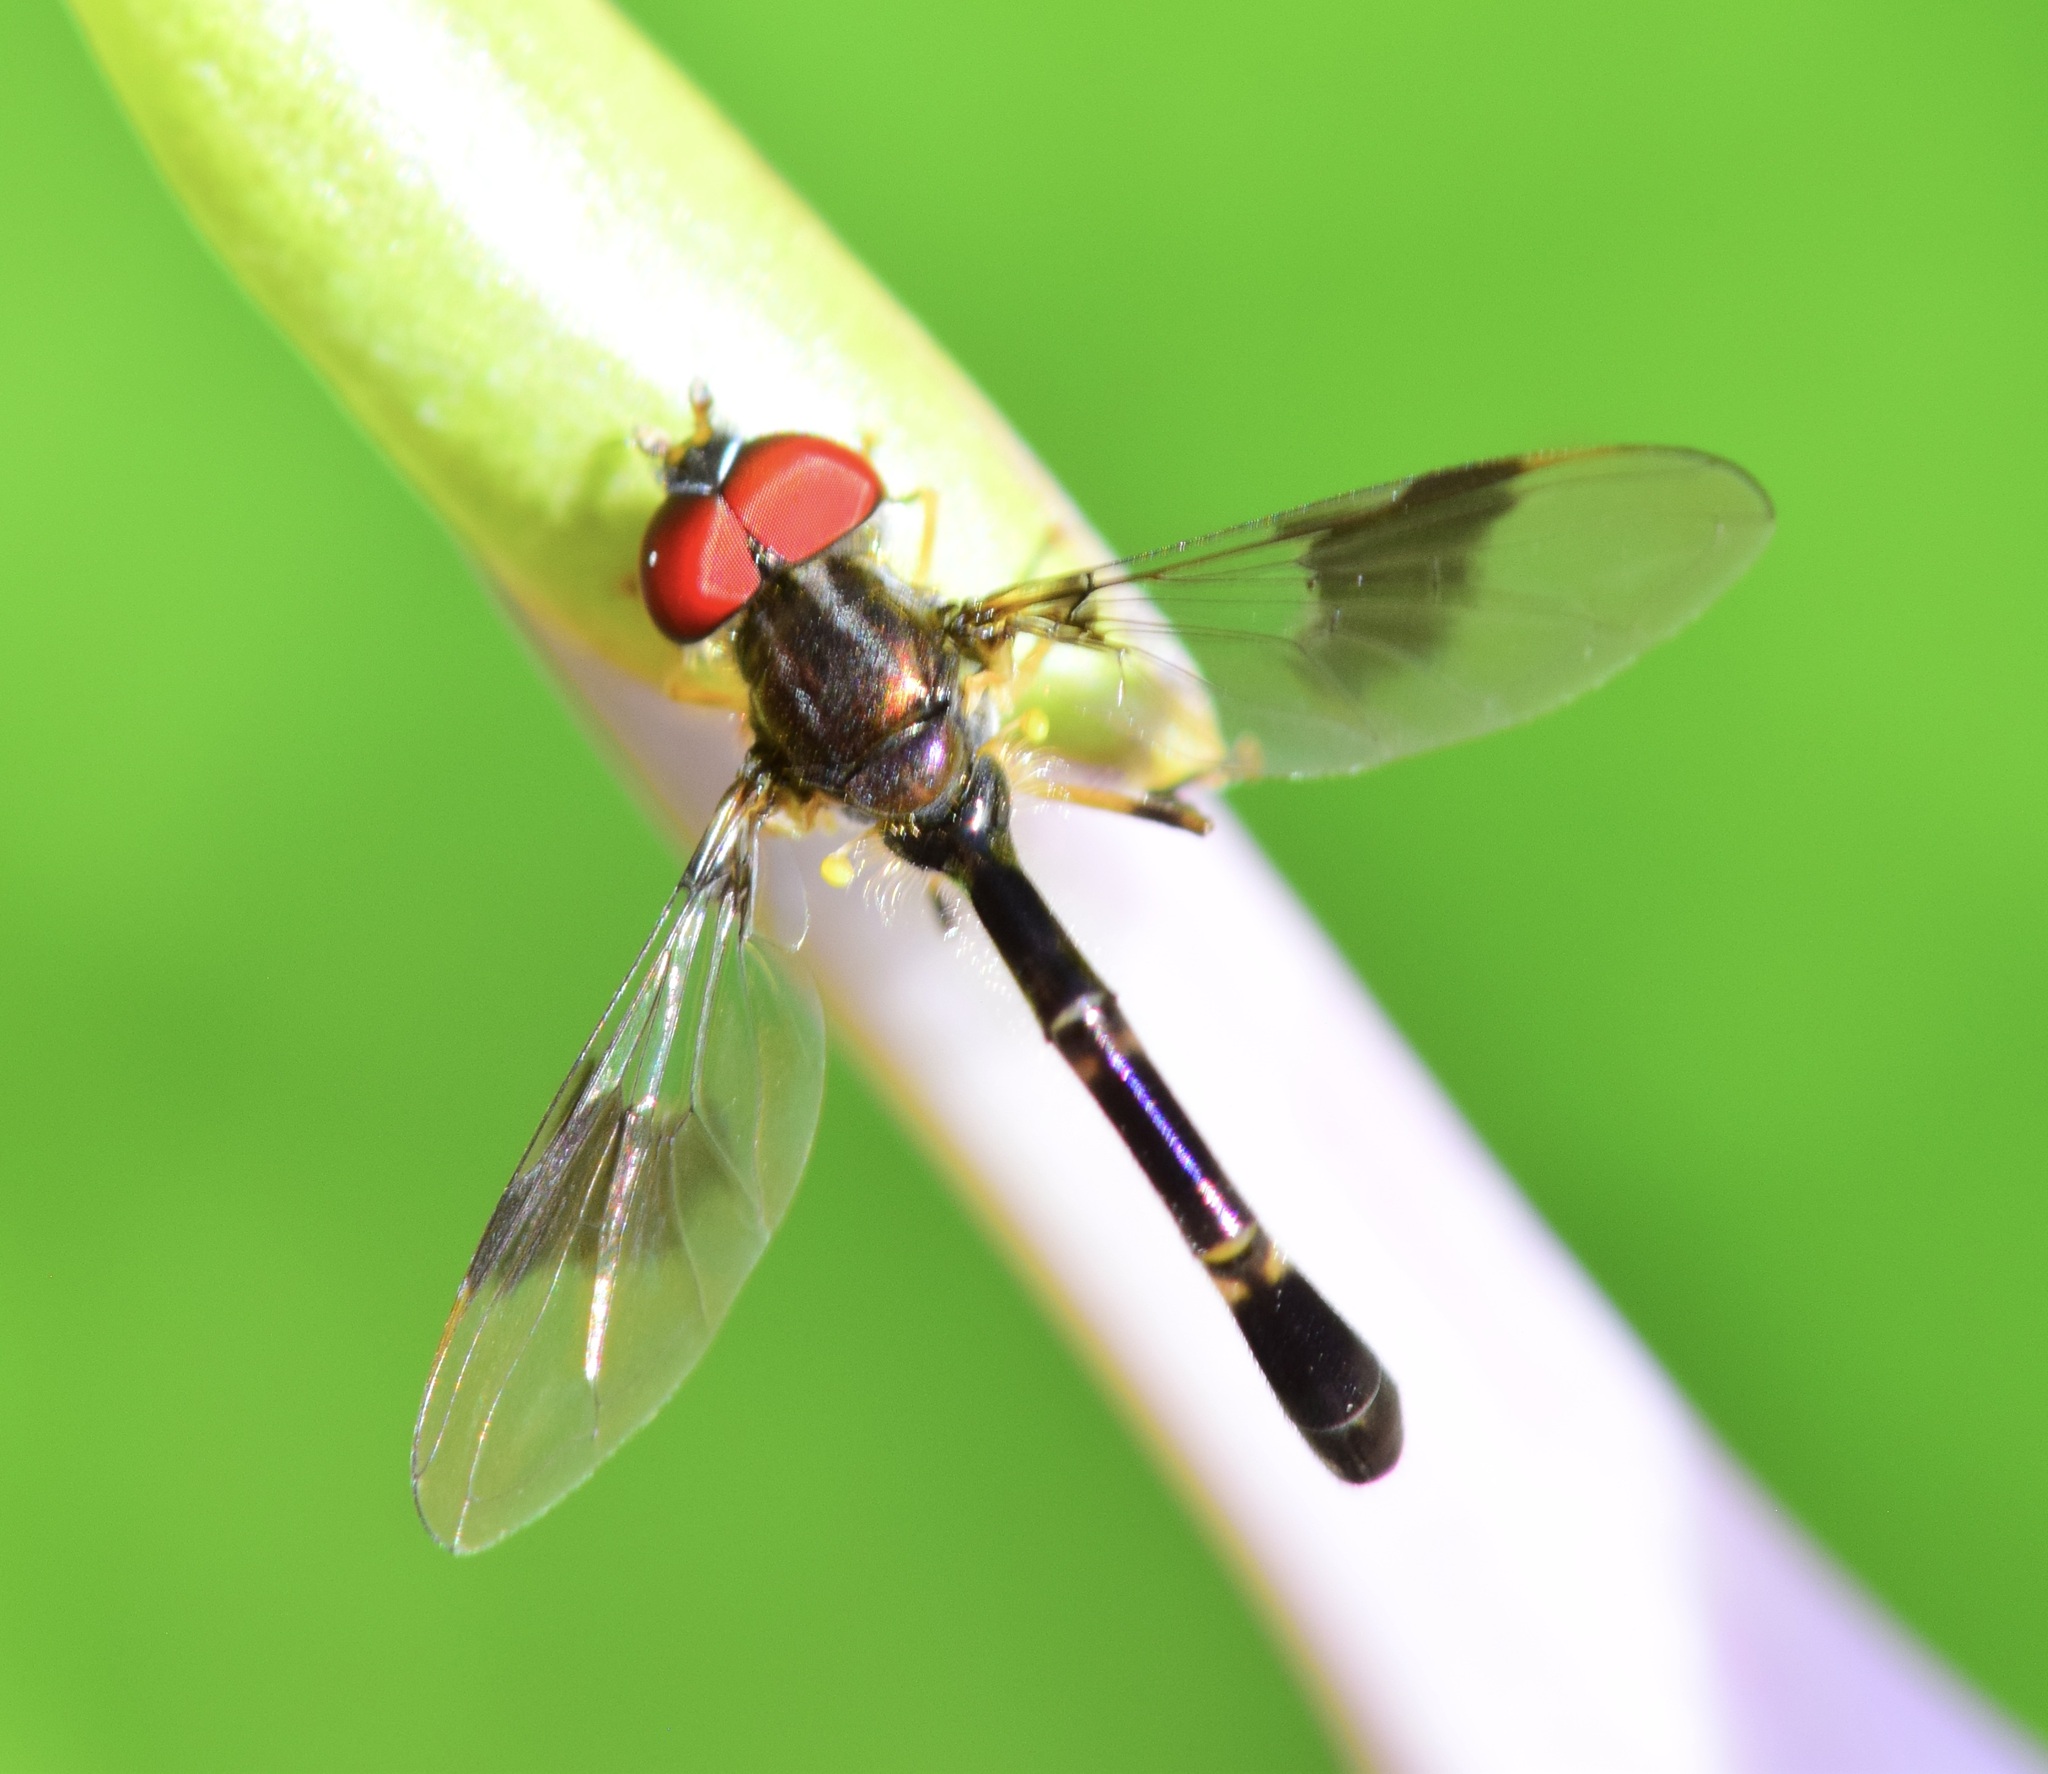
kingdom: Animalia
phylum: Arthropoda
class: Insecta
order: Diptera
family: Syrphidae
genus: Hypocritanus
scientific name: Hypocritanus fascipennis
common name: Eastern band-winged hover fly
